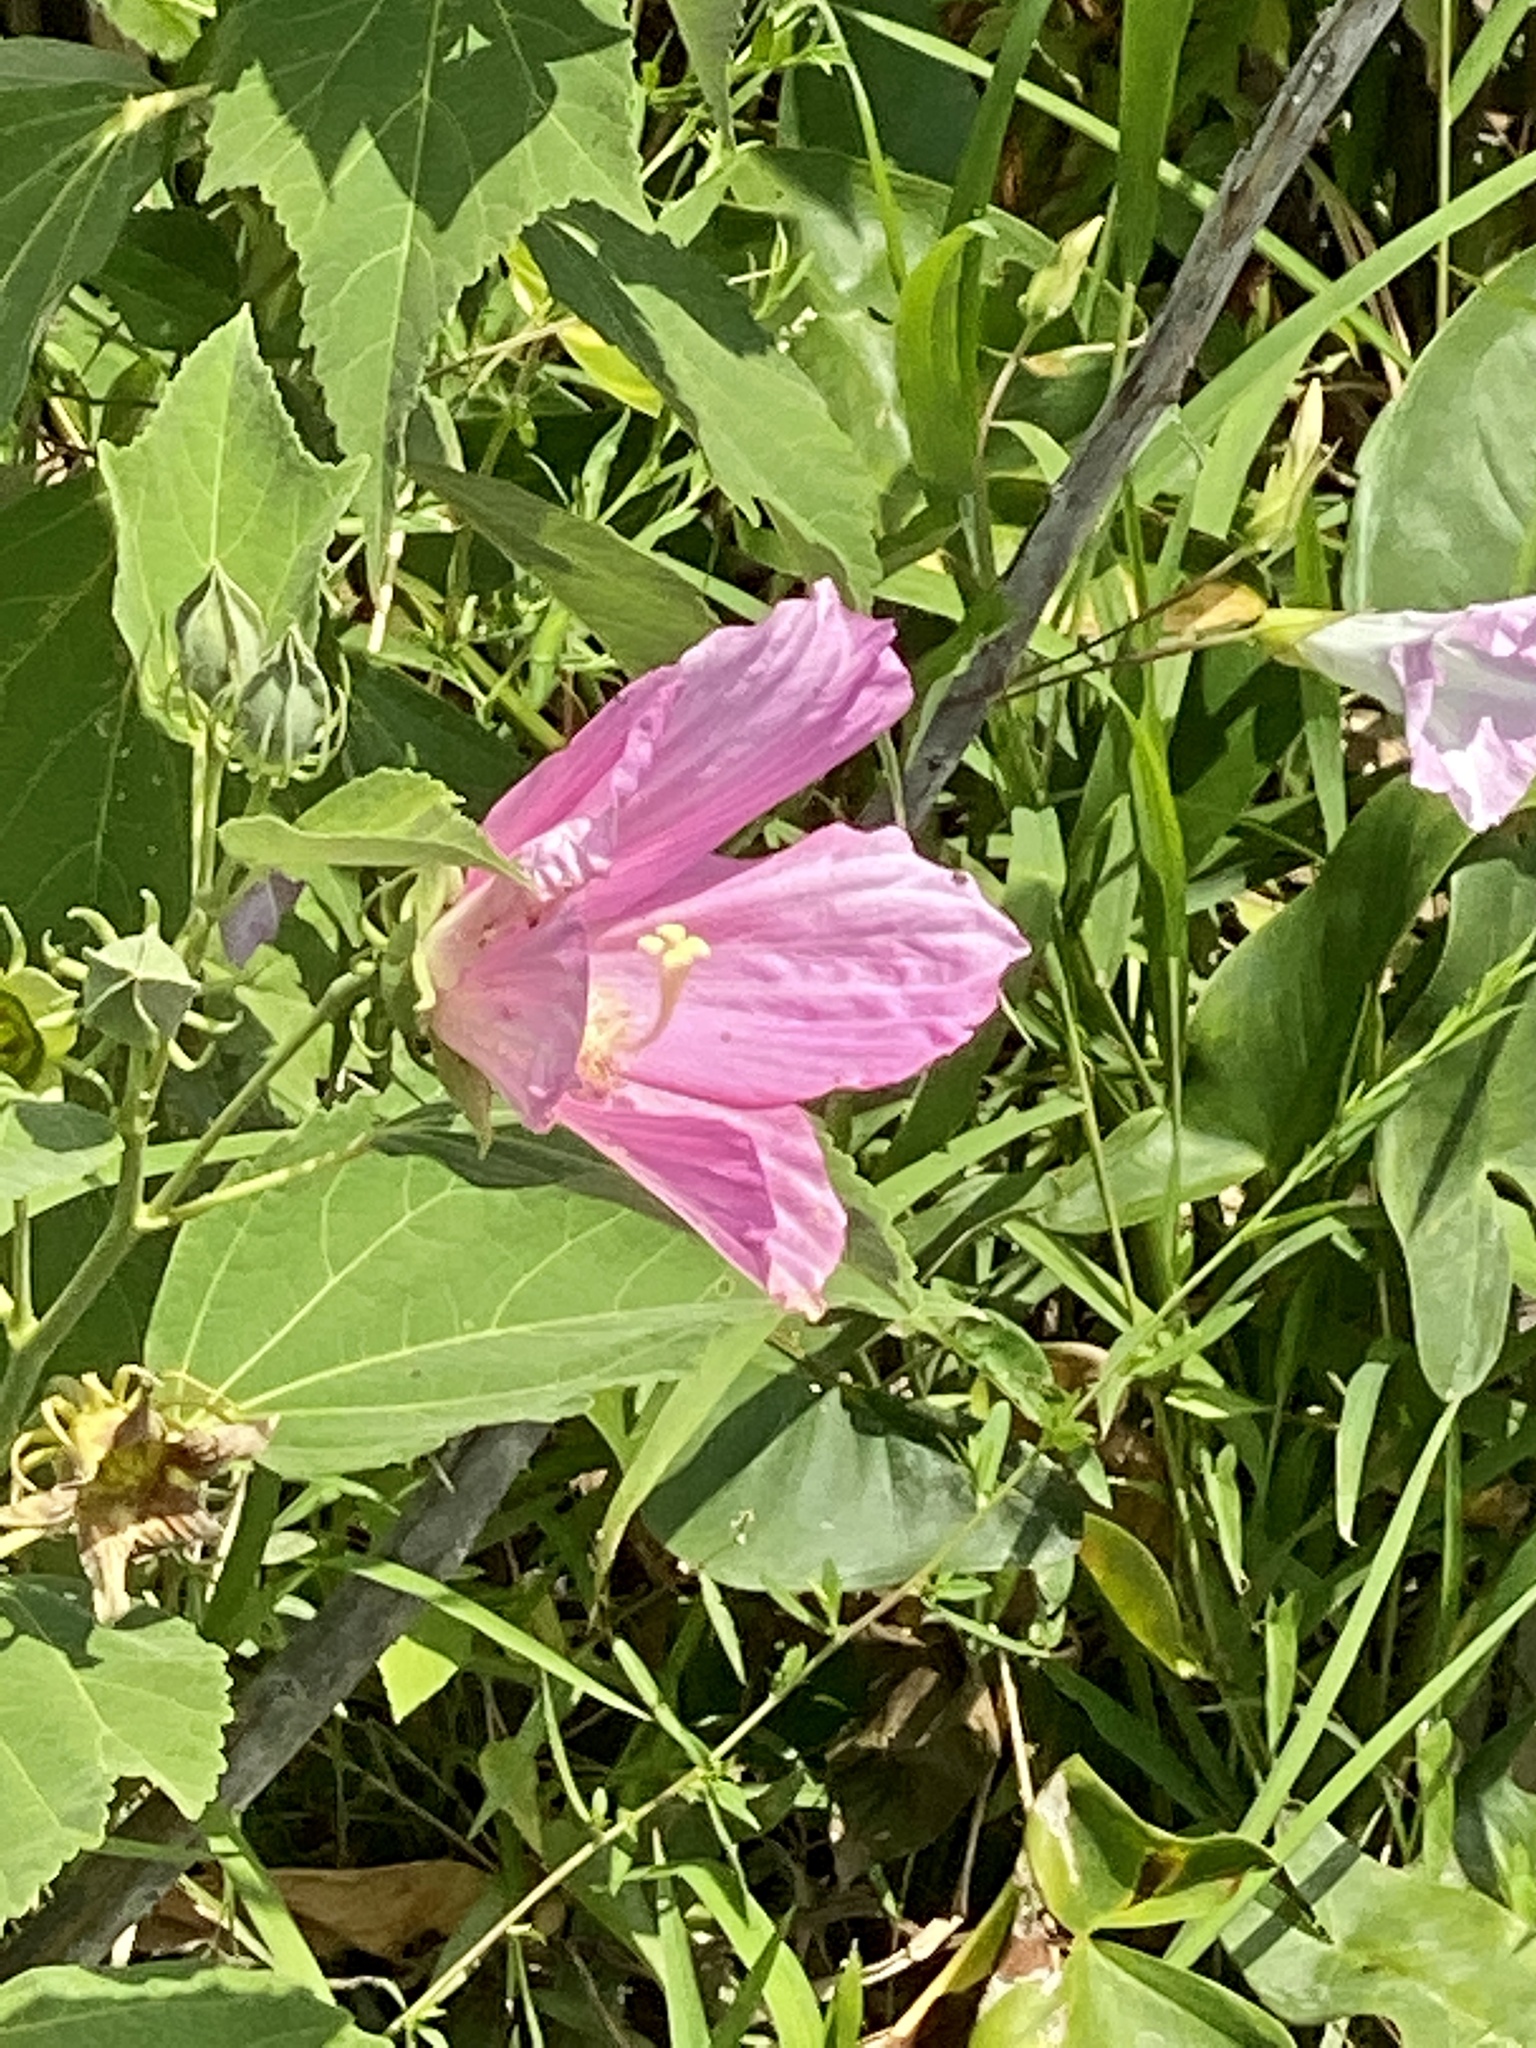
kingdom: Plantae
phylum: Tracheophyta
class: Magnoliopsida
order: Malvales
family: Malvaceae
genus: Hibiscus
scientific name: Hibiscus moscheutos
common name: Common rose-mallow
